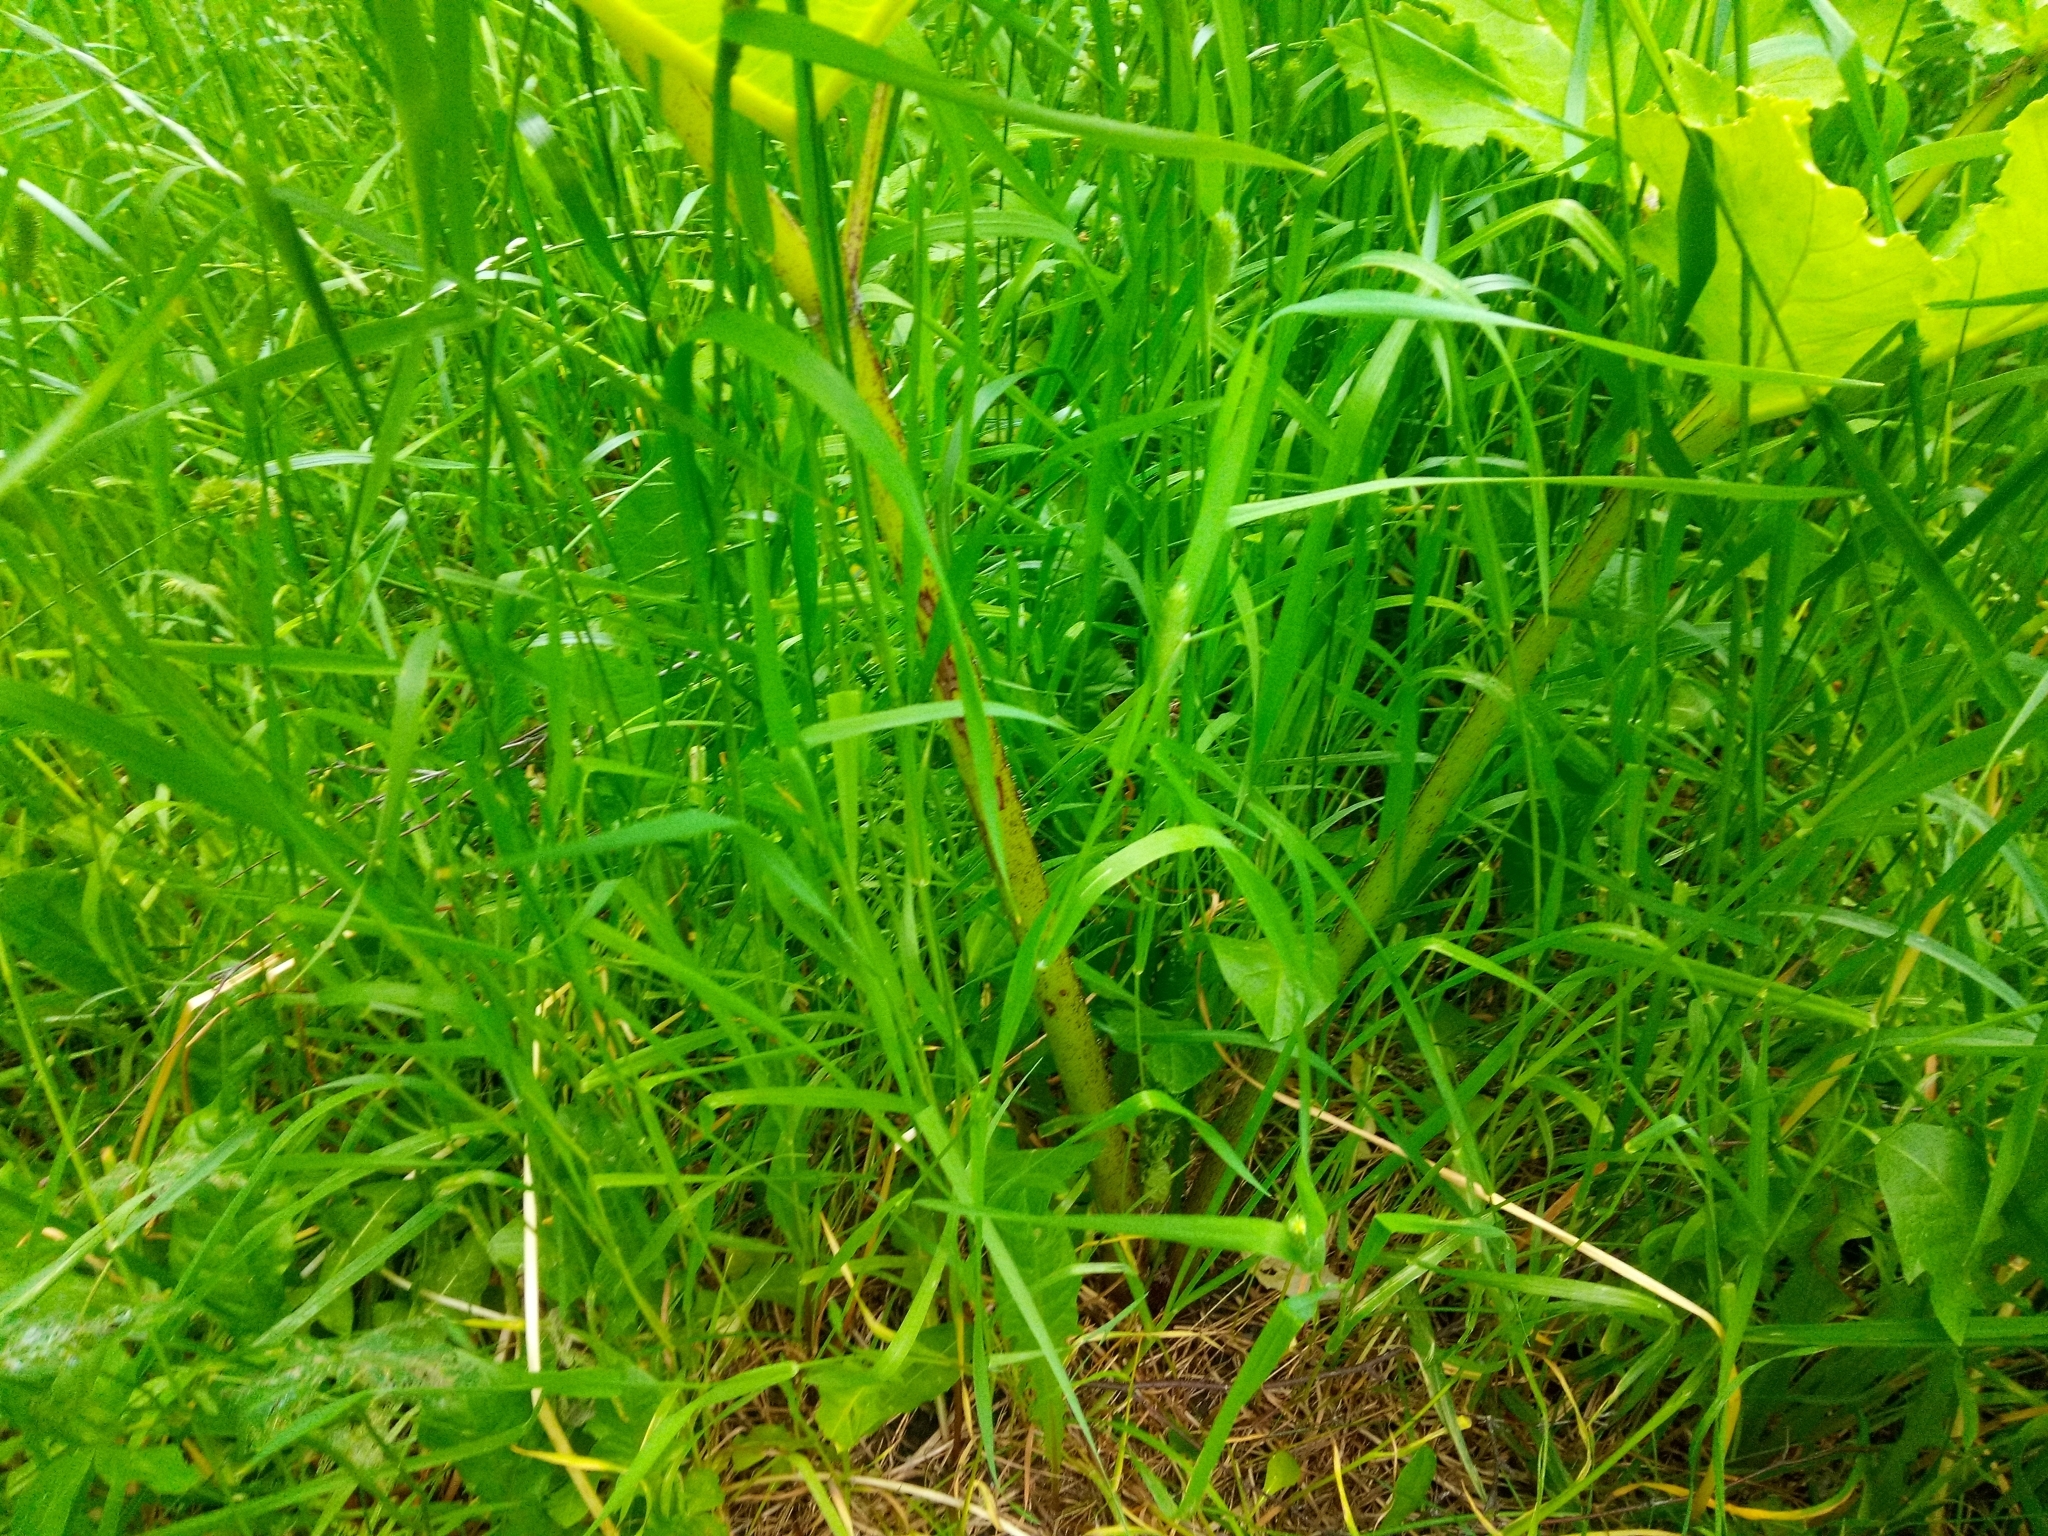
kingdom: Plantae
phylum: Tracheophyta
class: Magnoliopsida
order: Apiales
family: Apiaceae
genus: Heracleum
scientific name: Heracleum sosnowskyi
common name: Sosnowsky's hogweed
